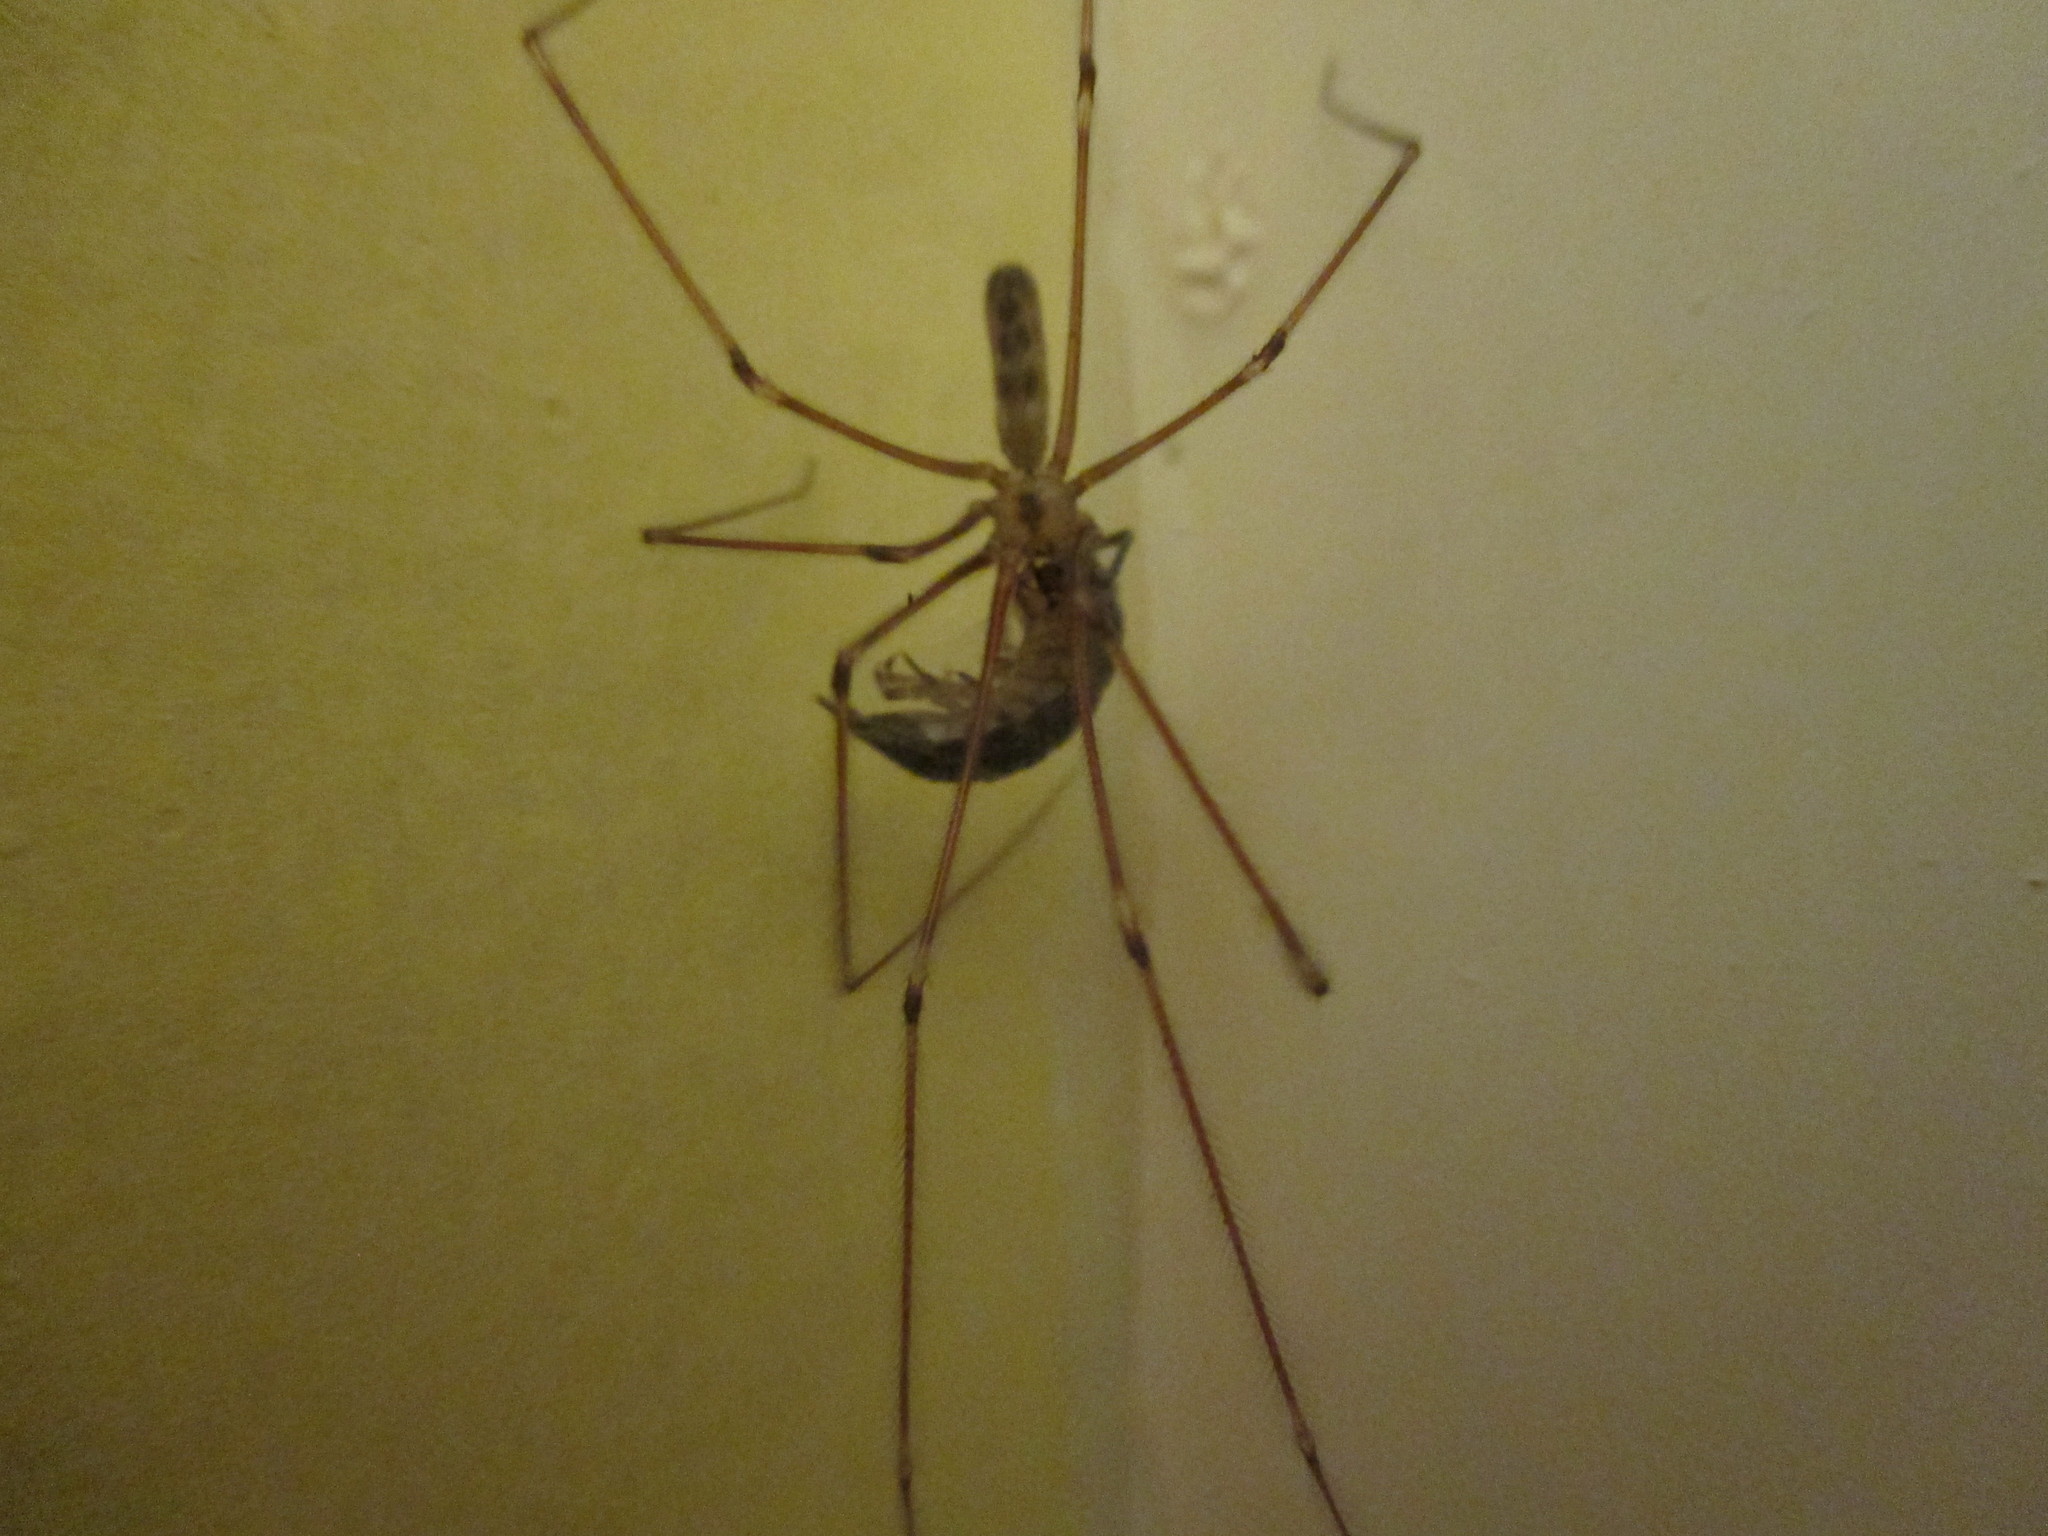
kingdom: Animalia
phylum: Arthropoda
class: Arachnida
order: Araneae
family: Pholcidae
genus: Pholcus
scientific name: Pholcus phalangioides
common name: Longbodied cellar spider
